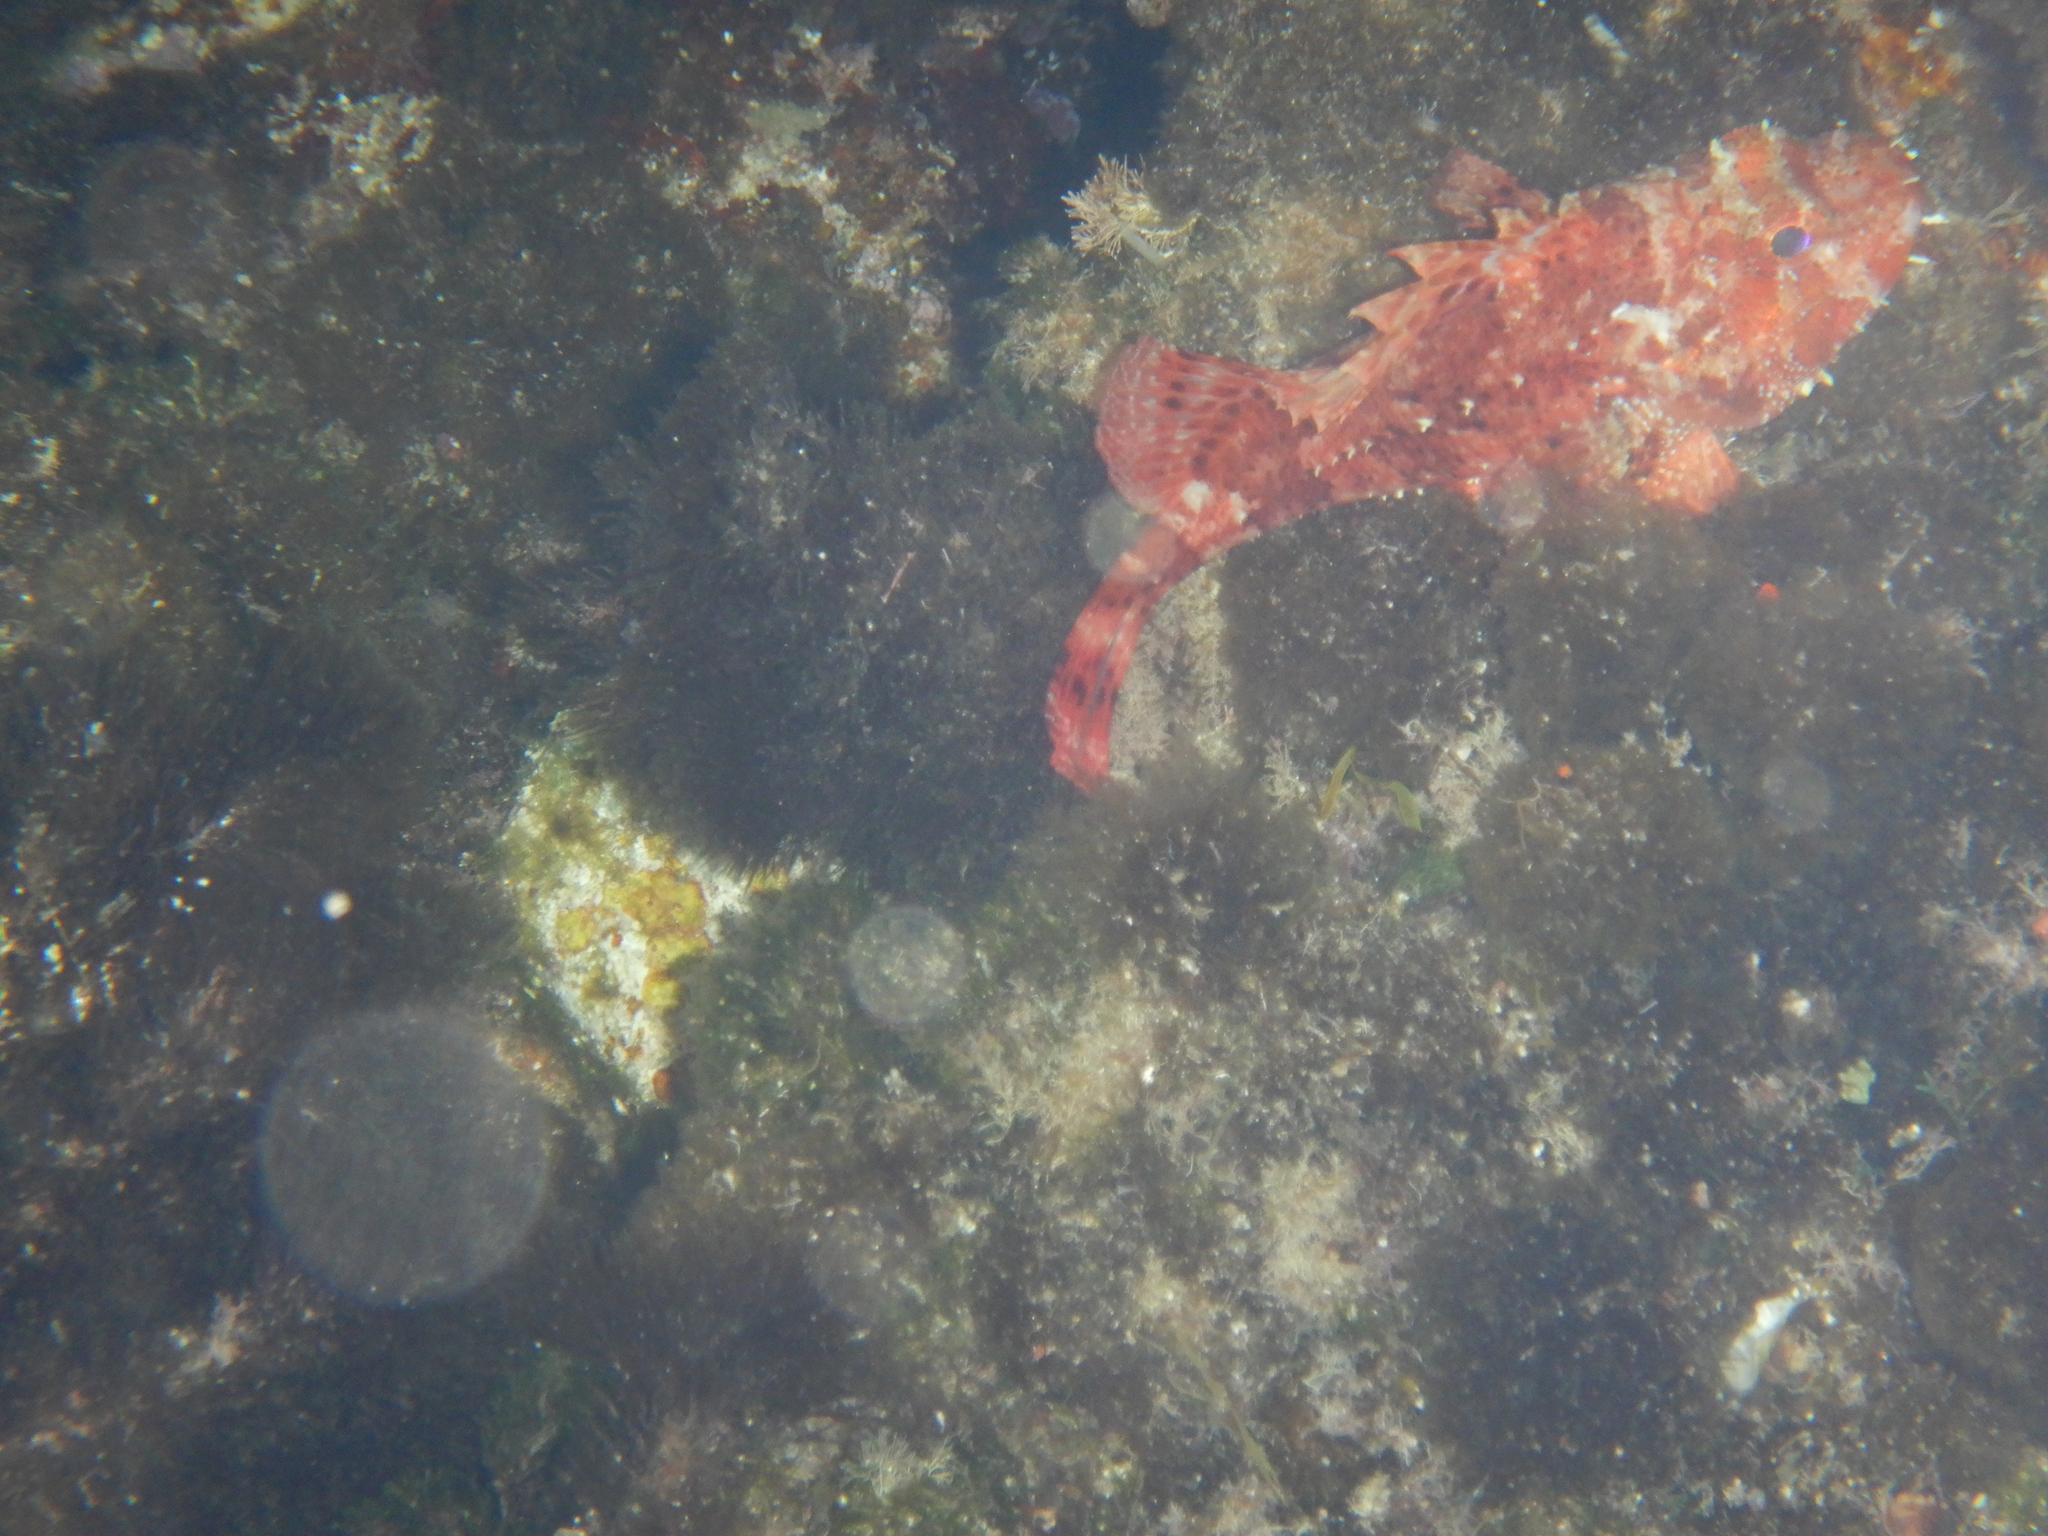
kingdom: Animalia
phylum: Chordata
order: Scorpaeniformes
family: Scorpaenidae
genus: Scorpaena
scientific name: Scorpaena maderensis
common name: Madeira rockfish
